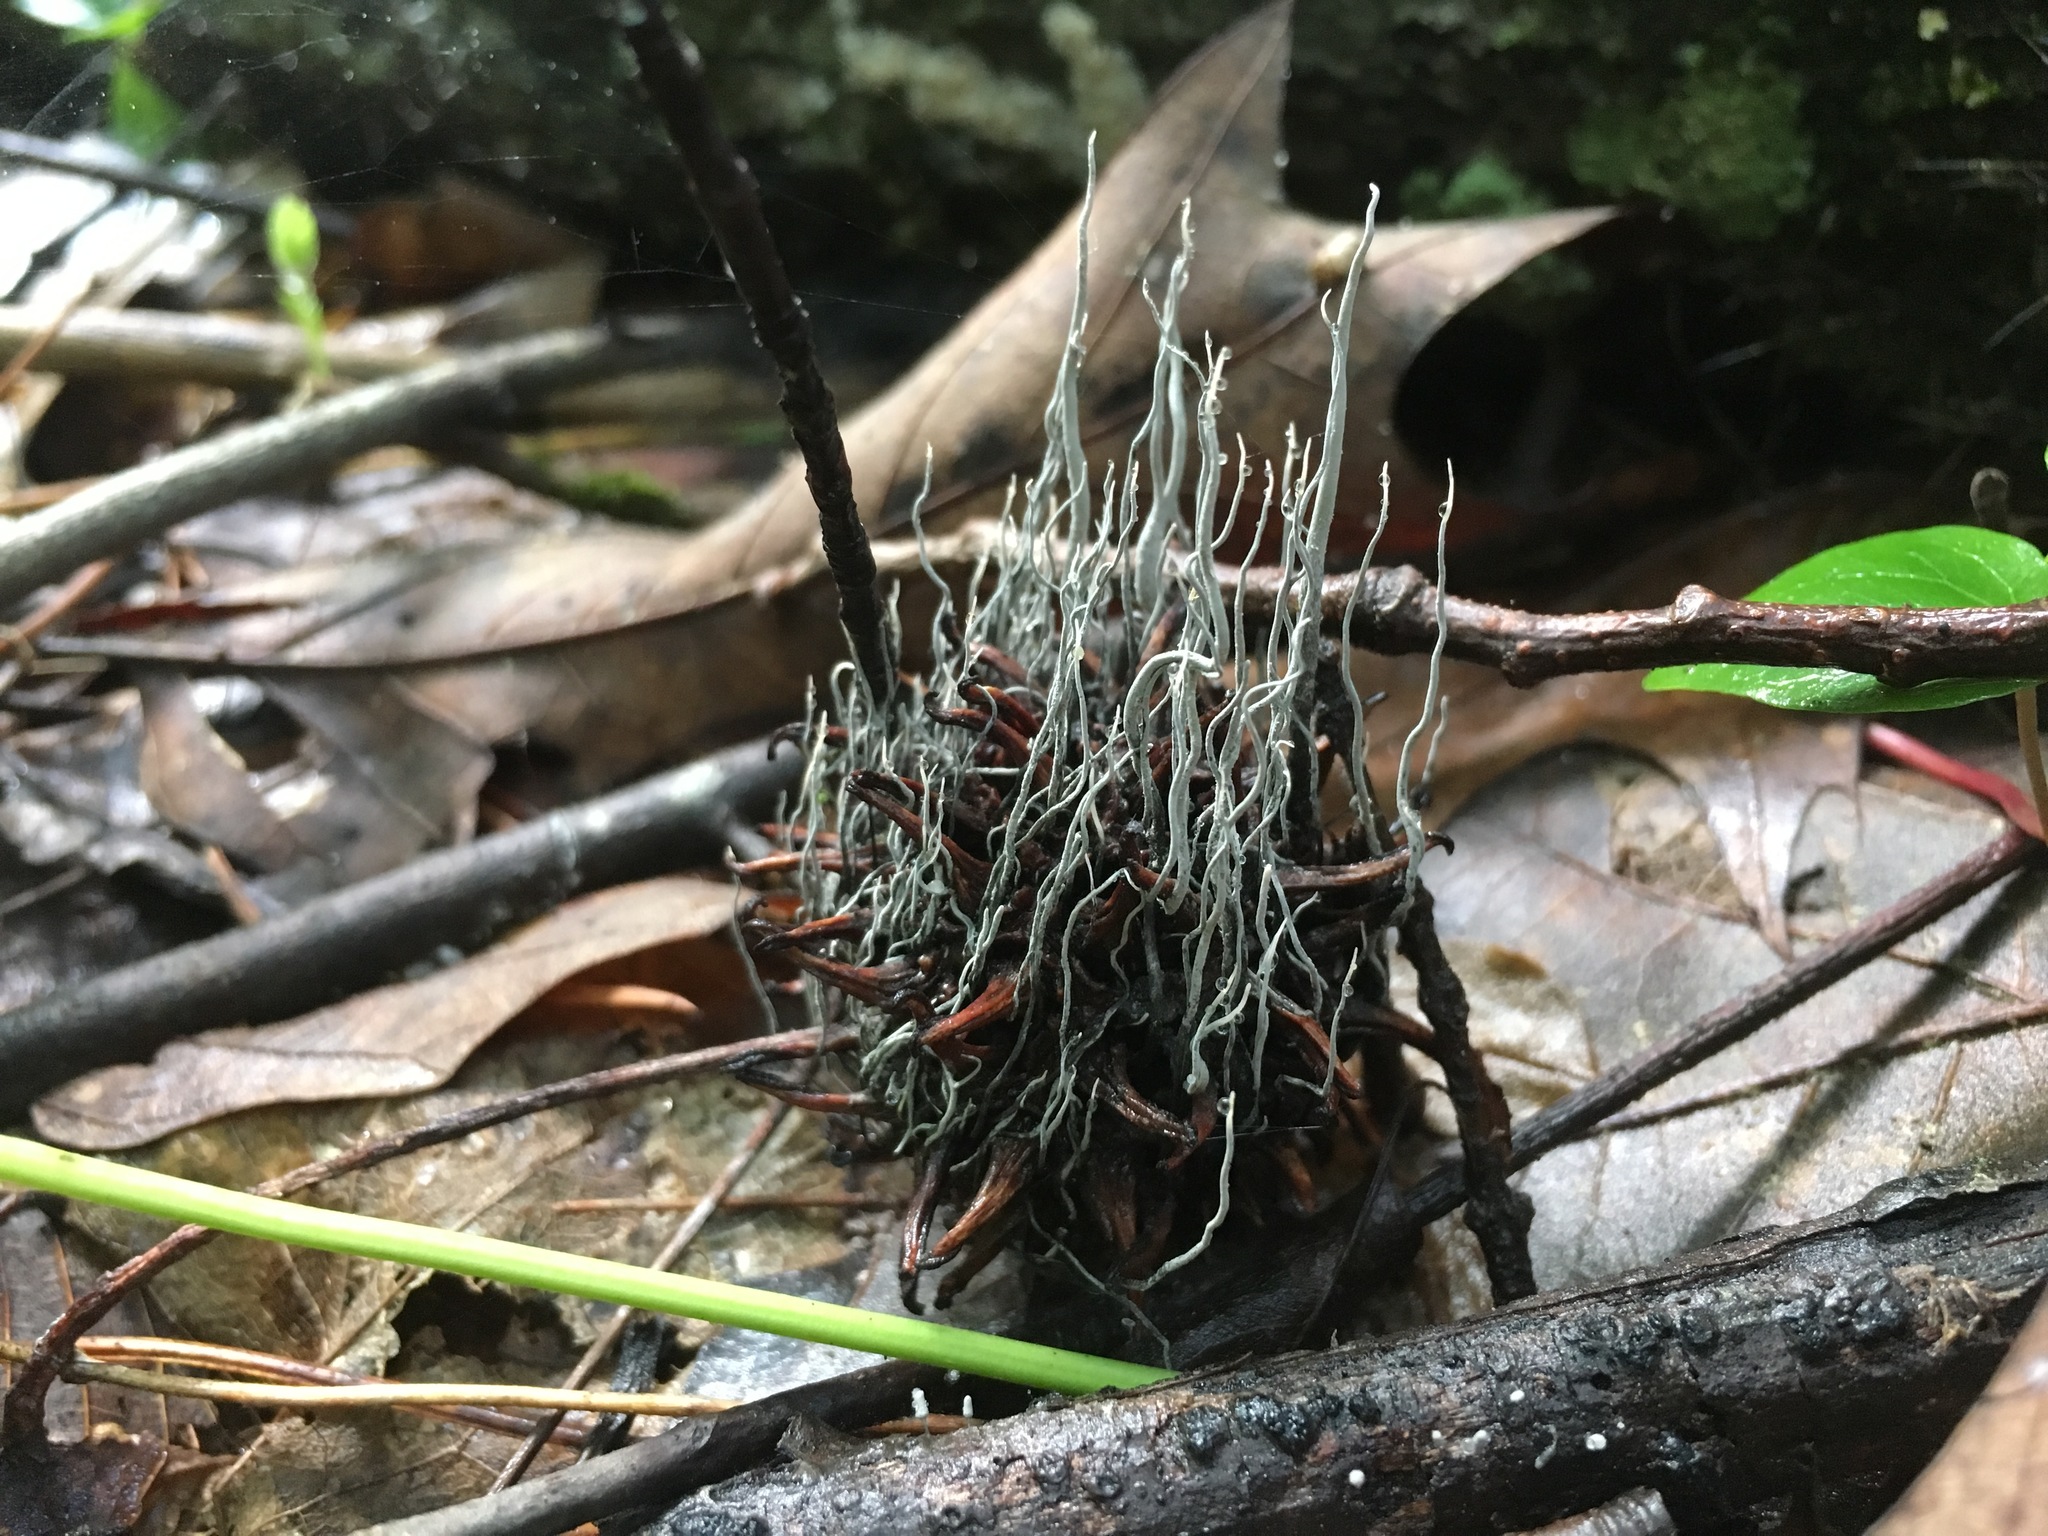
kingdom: Fungi
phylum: Ascomycota
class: Sordariomycetes
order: Xylariales
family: Xylariaceae
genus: Xylaria
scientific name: Xylaria liquidambaris
